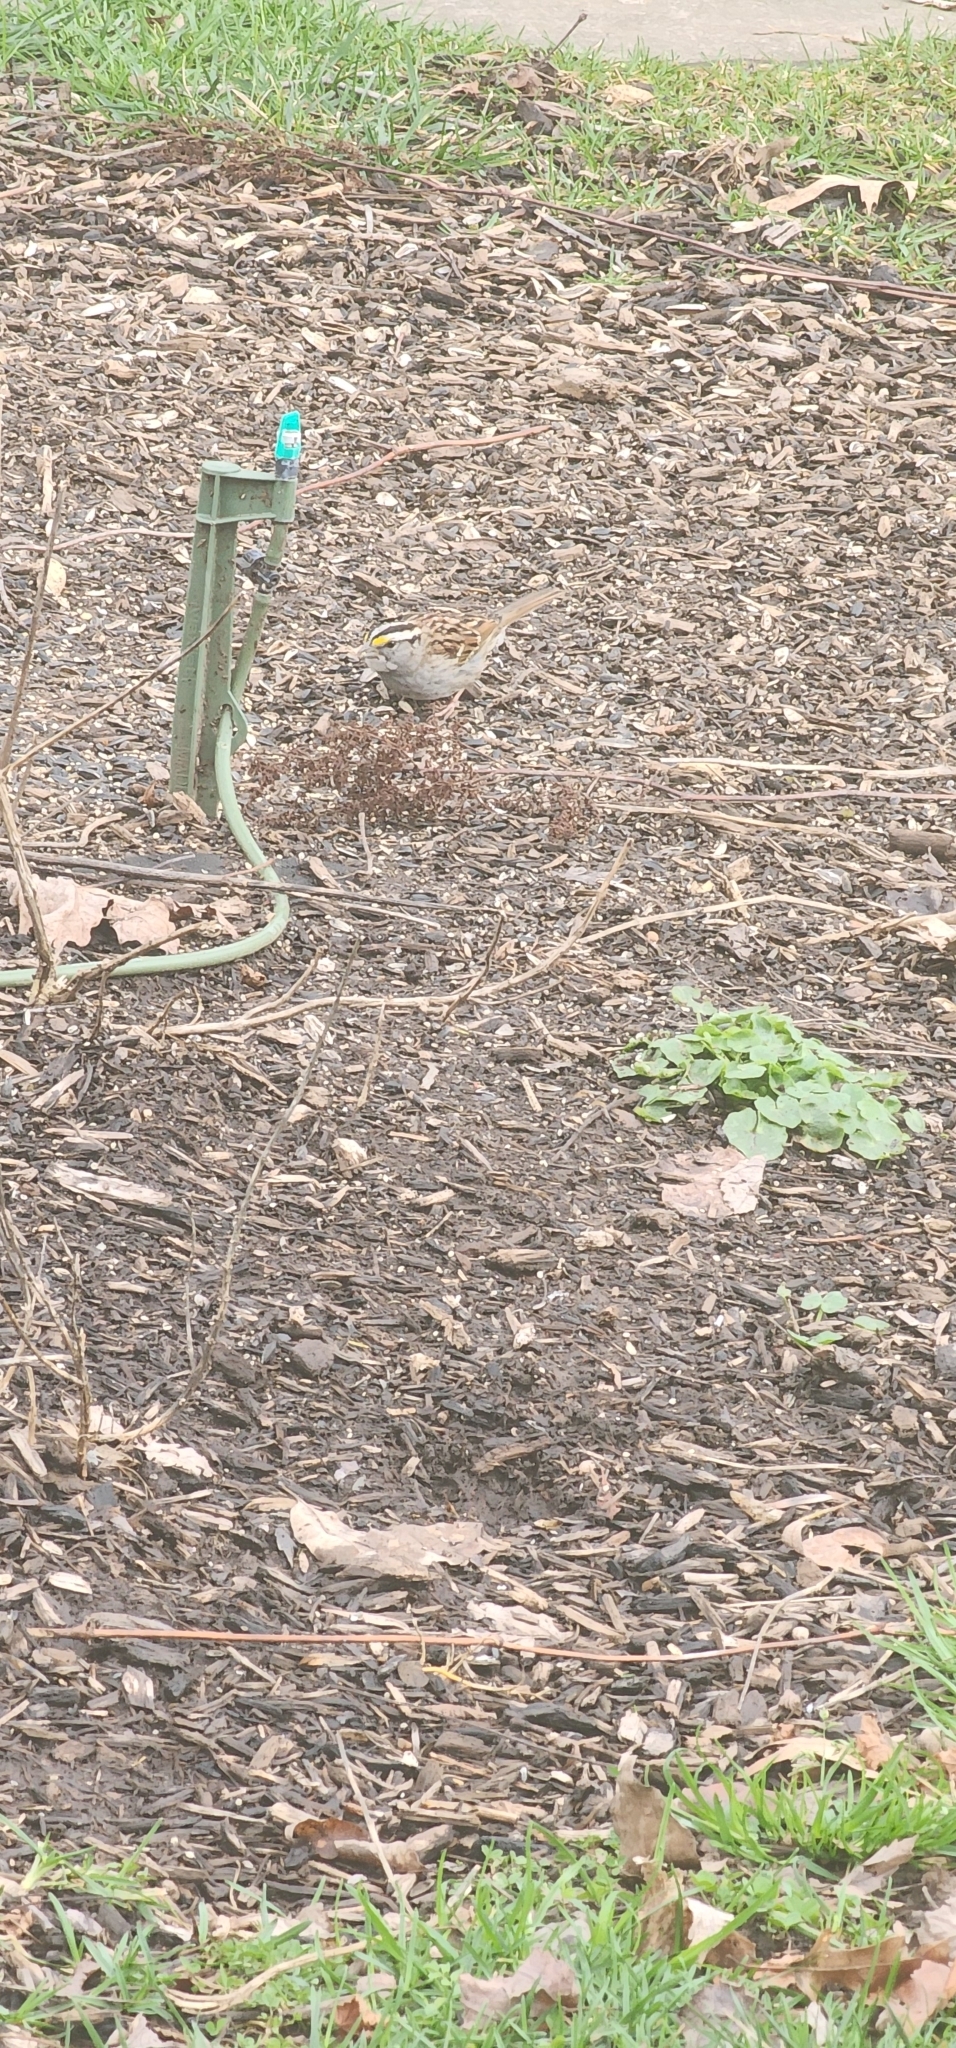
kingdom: Animalia
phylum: Chordata
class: Aves
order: Passeriformes
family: Passerellidae
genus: Zonotrichia
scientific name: Zonotrichia albicollis
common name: White-throated sparrow
